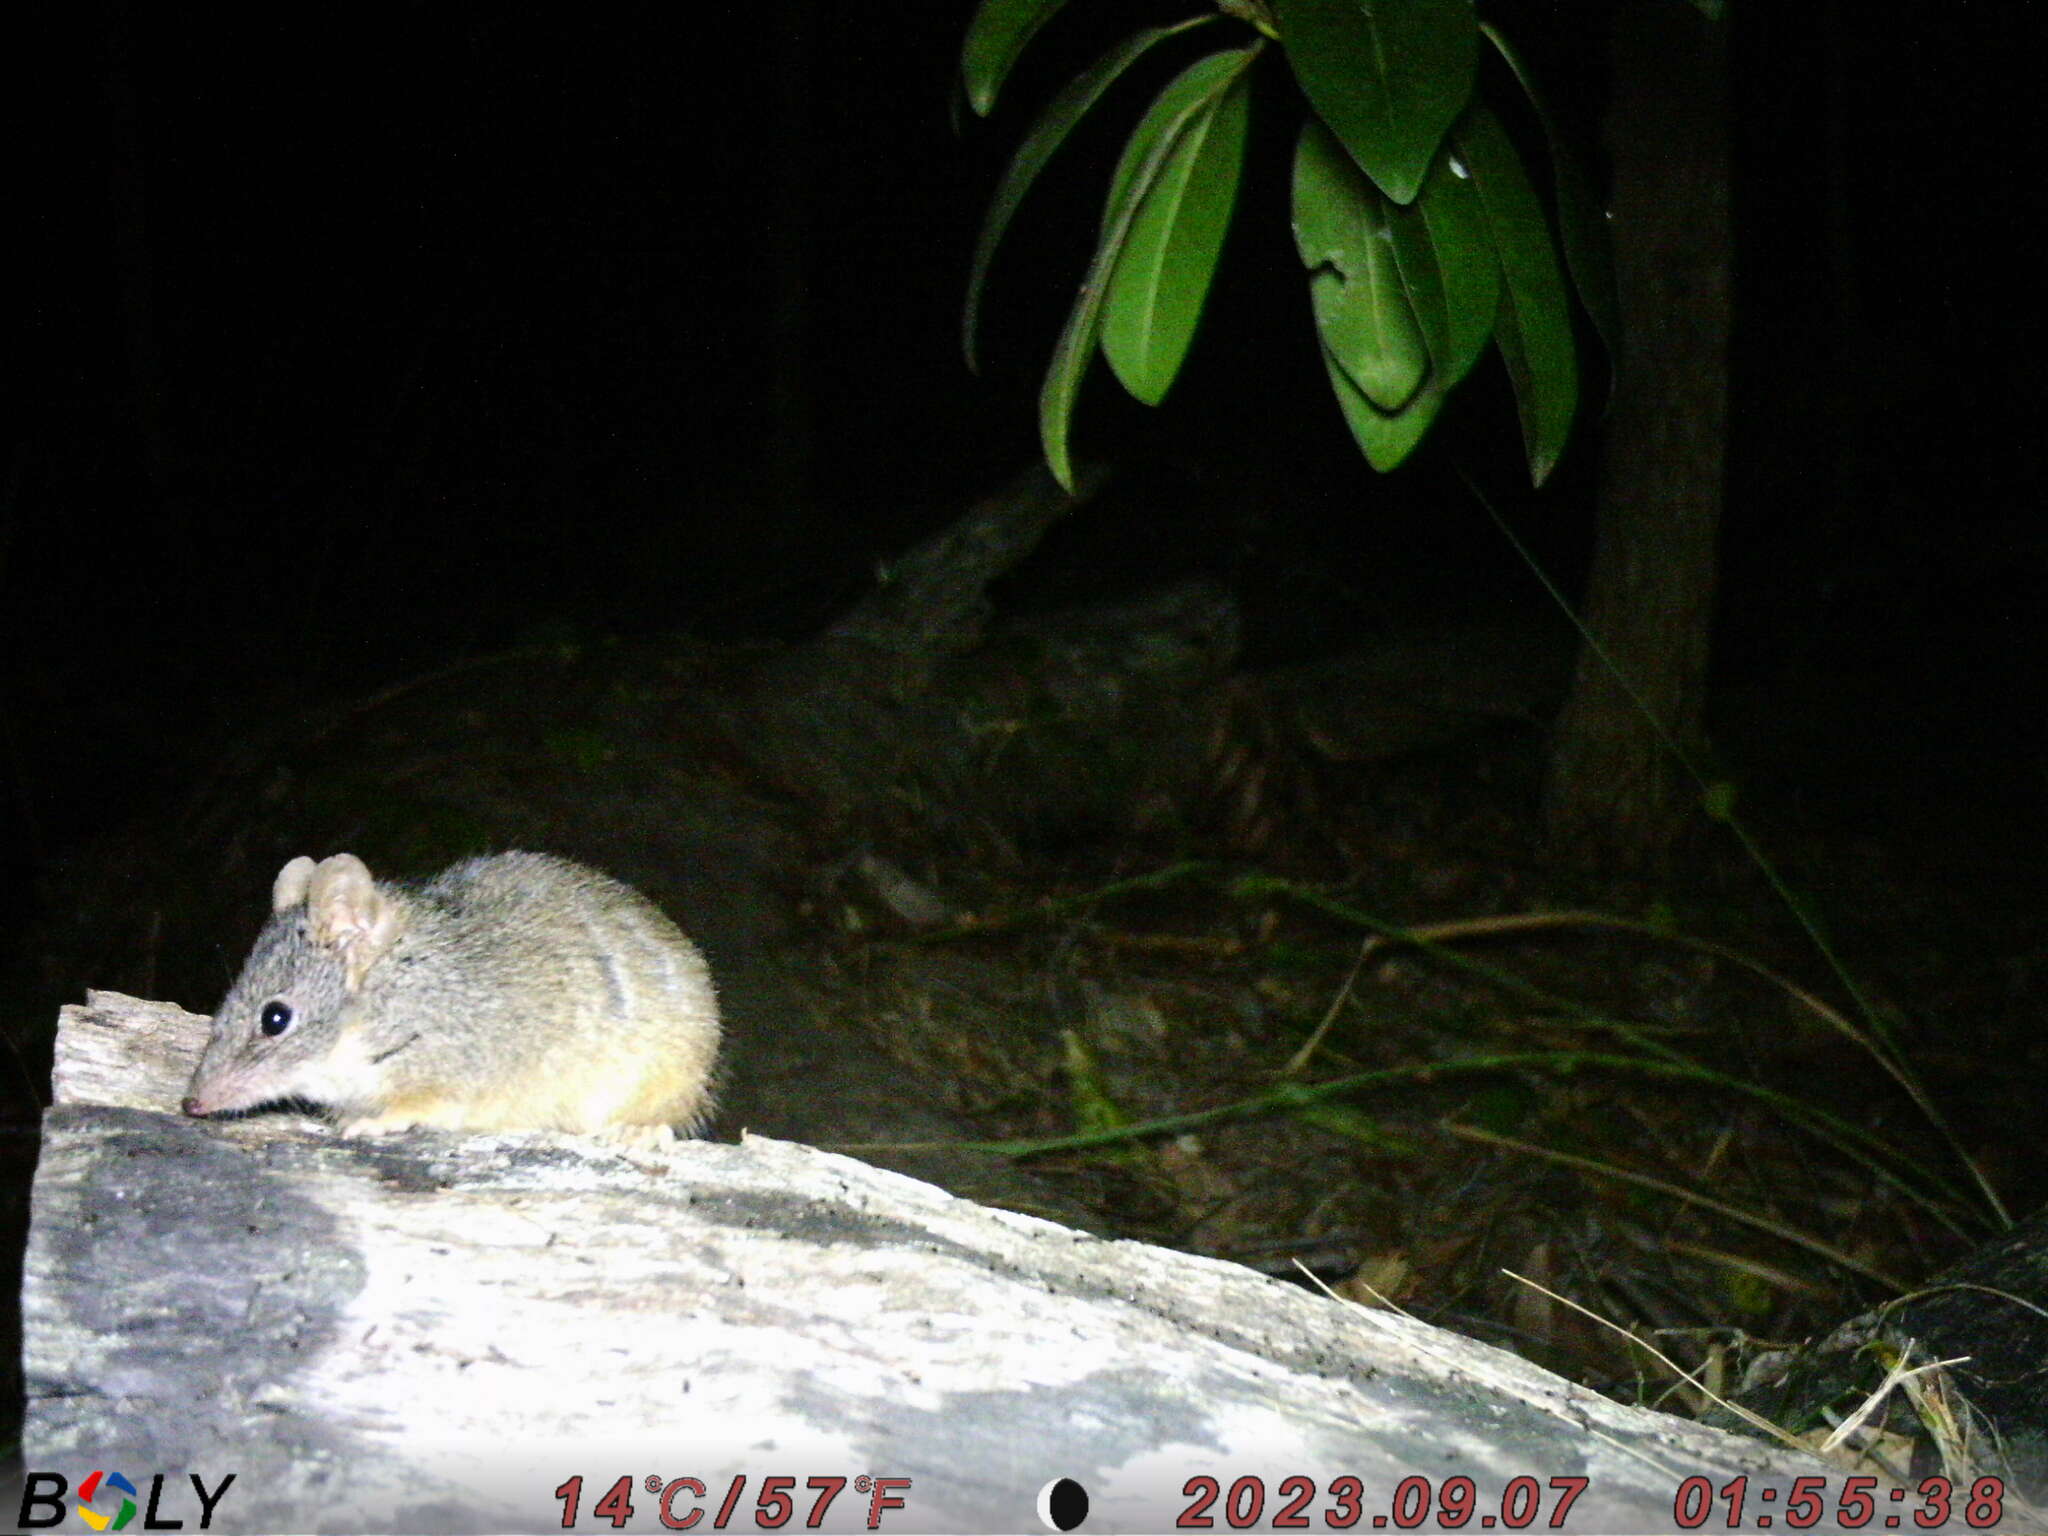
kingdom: Animalia
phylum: Chordata
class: Mammalia
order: Dasyuromorphia
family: Dasyuridae
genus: Antechinus
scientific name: Antechinus flavipes
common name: Yellow-footed antechinus
